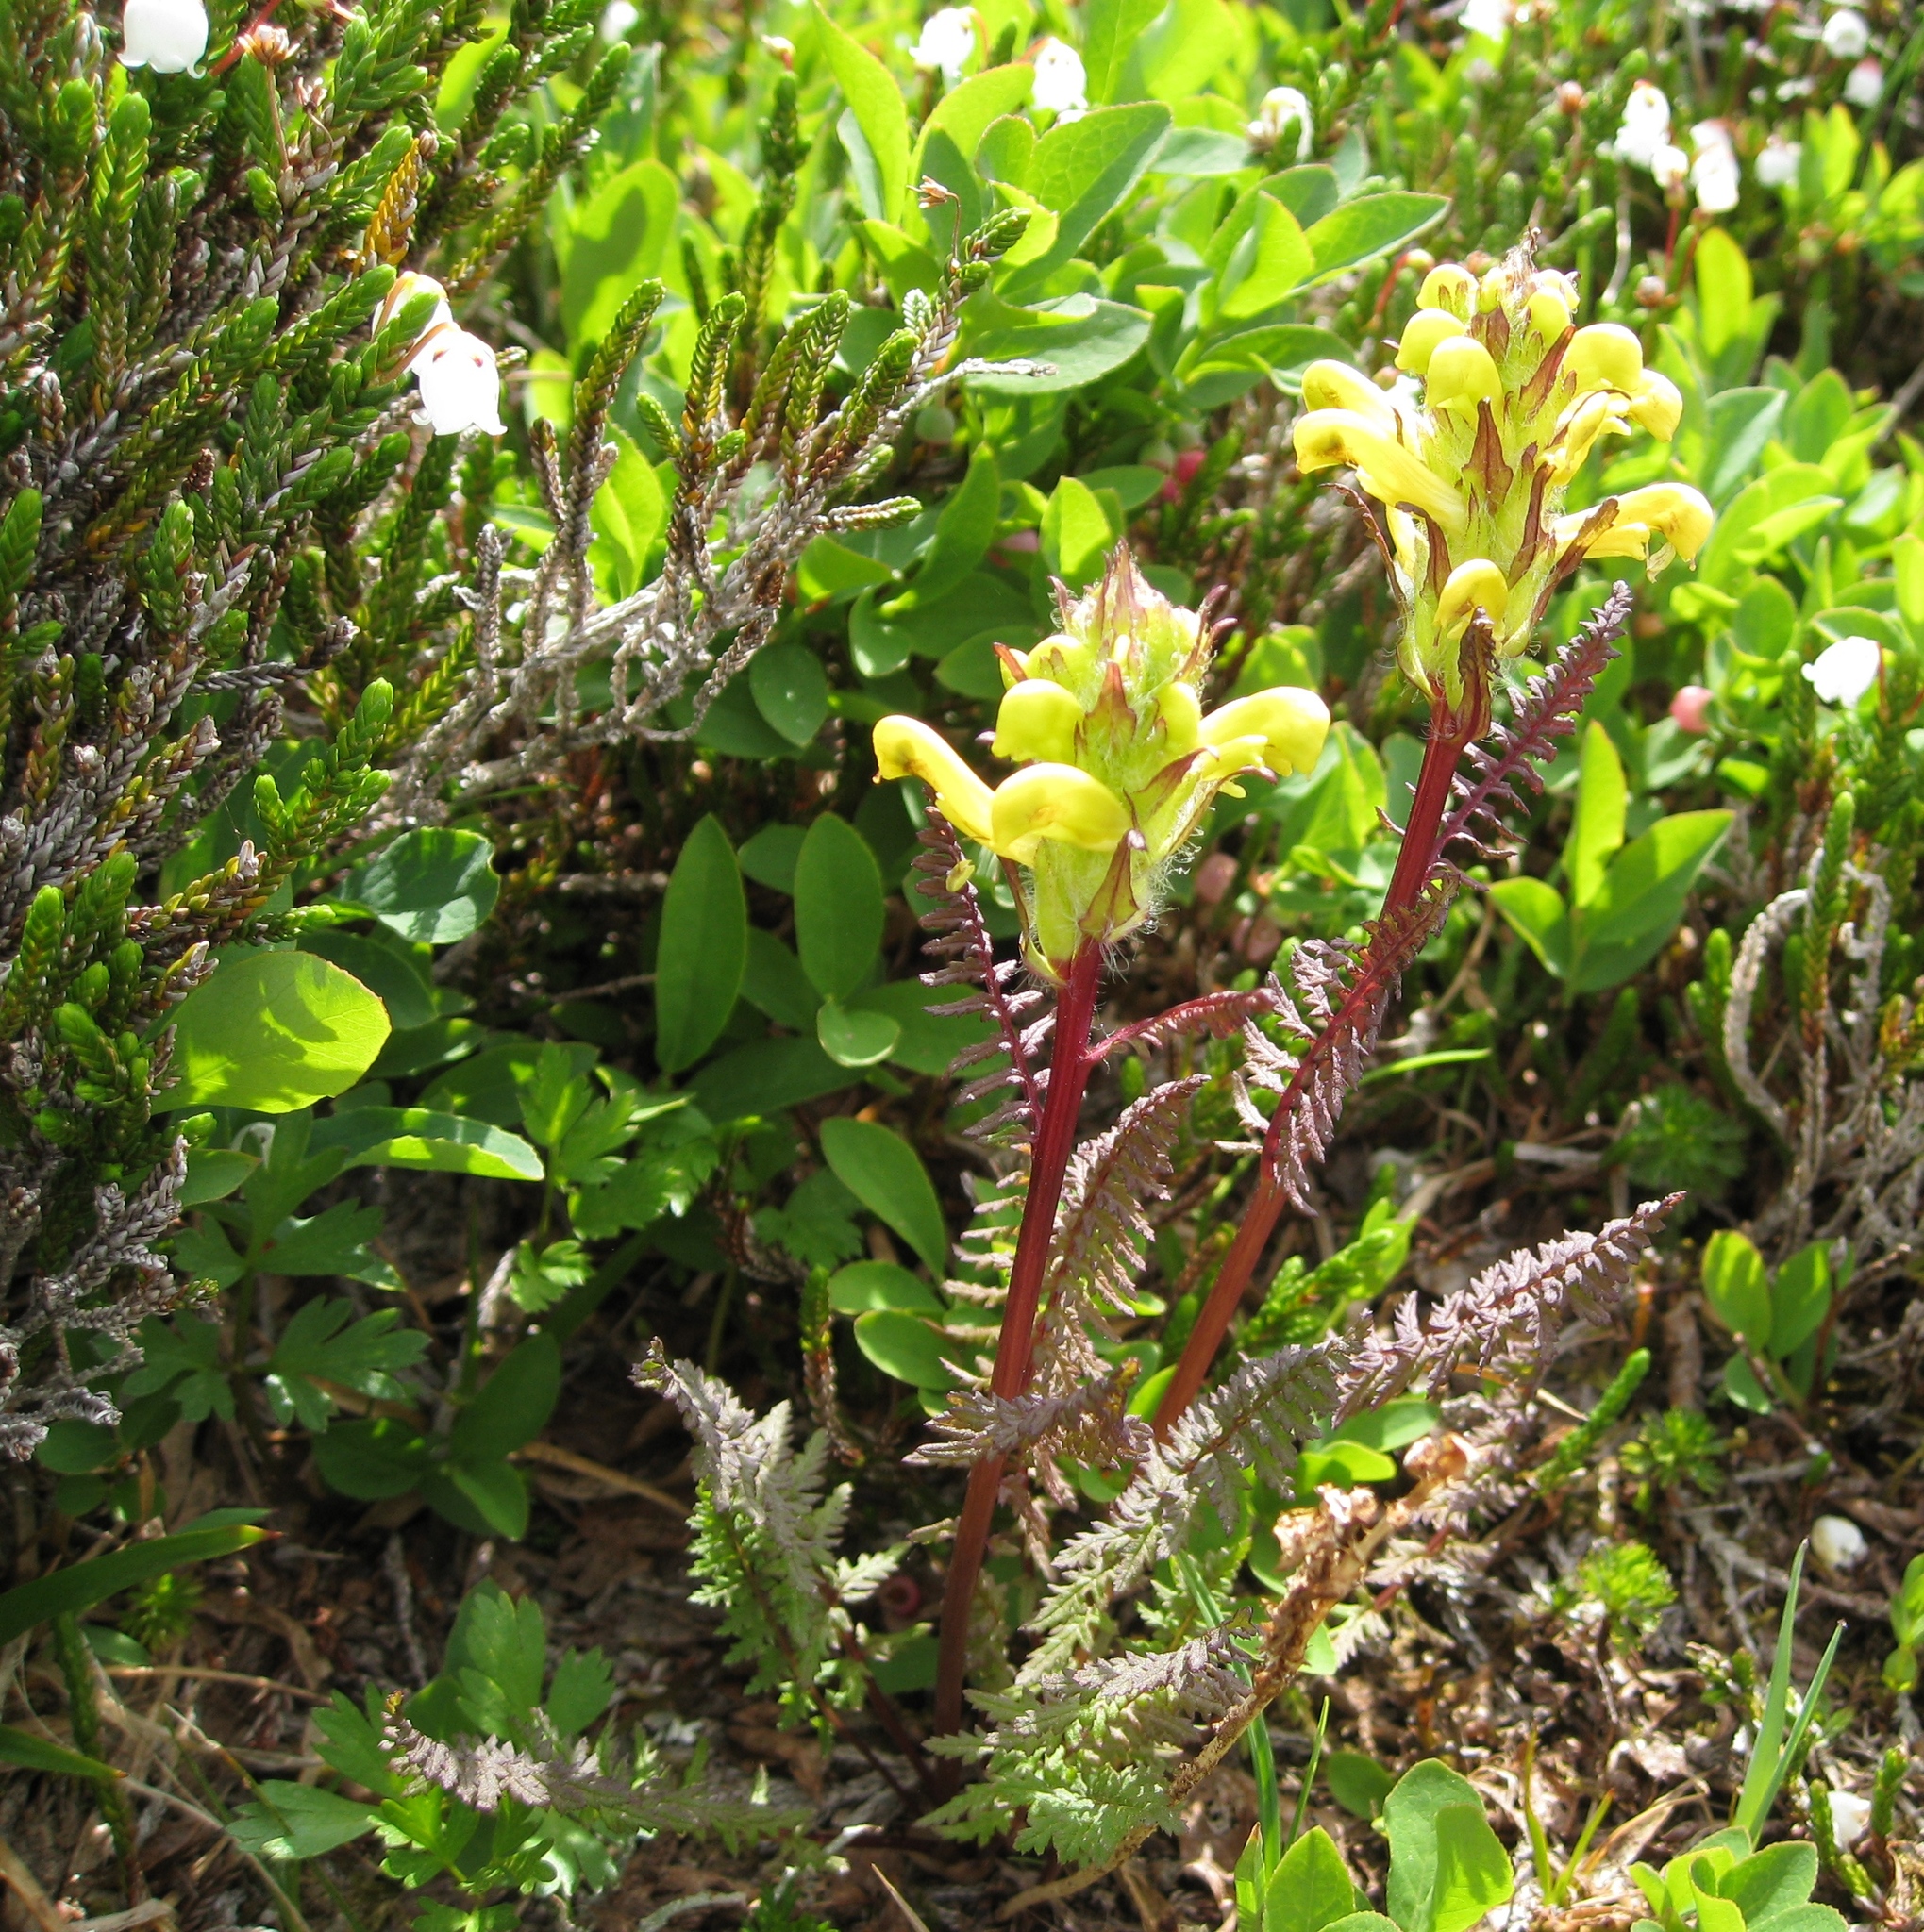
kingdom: Plantae
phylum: Tracheophyta
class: Magnoliopsida
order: Lamiales
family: Orobanchaceae
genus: Pedicularis
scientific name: Pedicularis rainierensis
